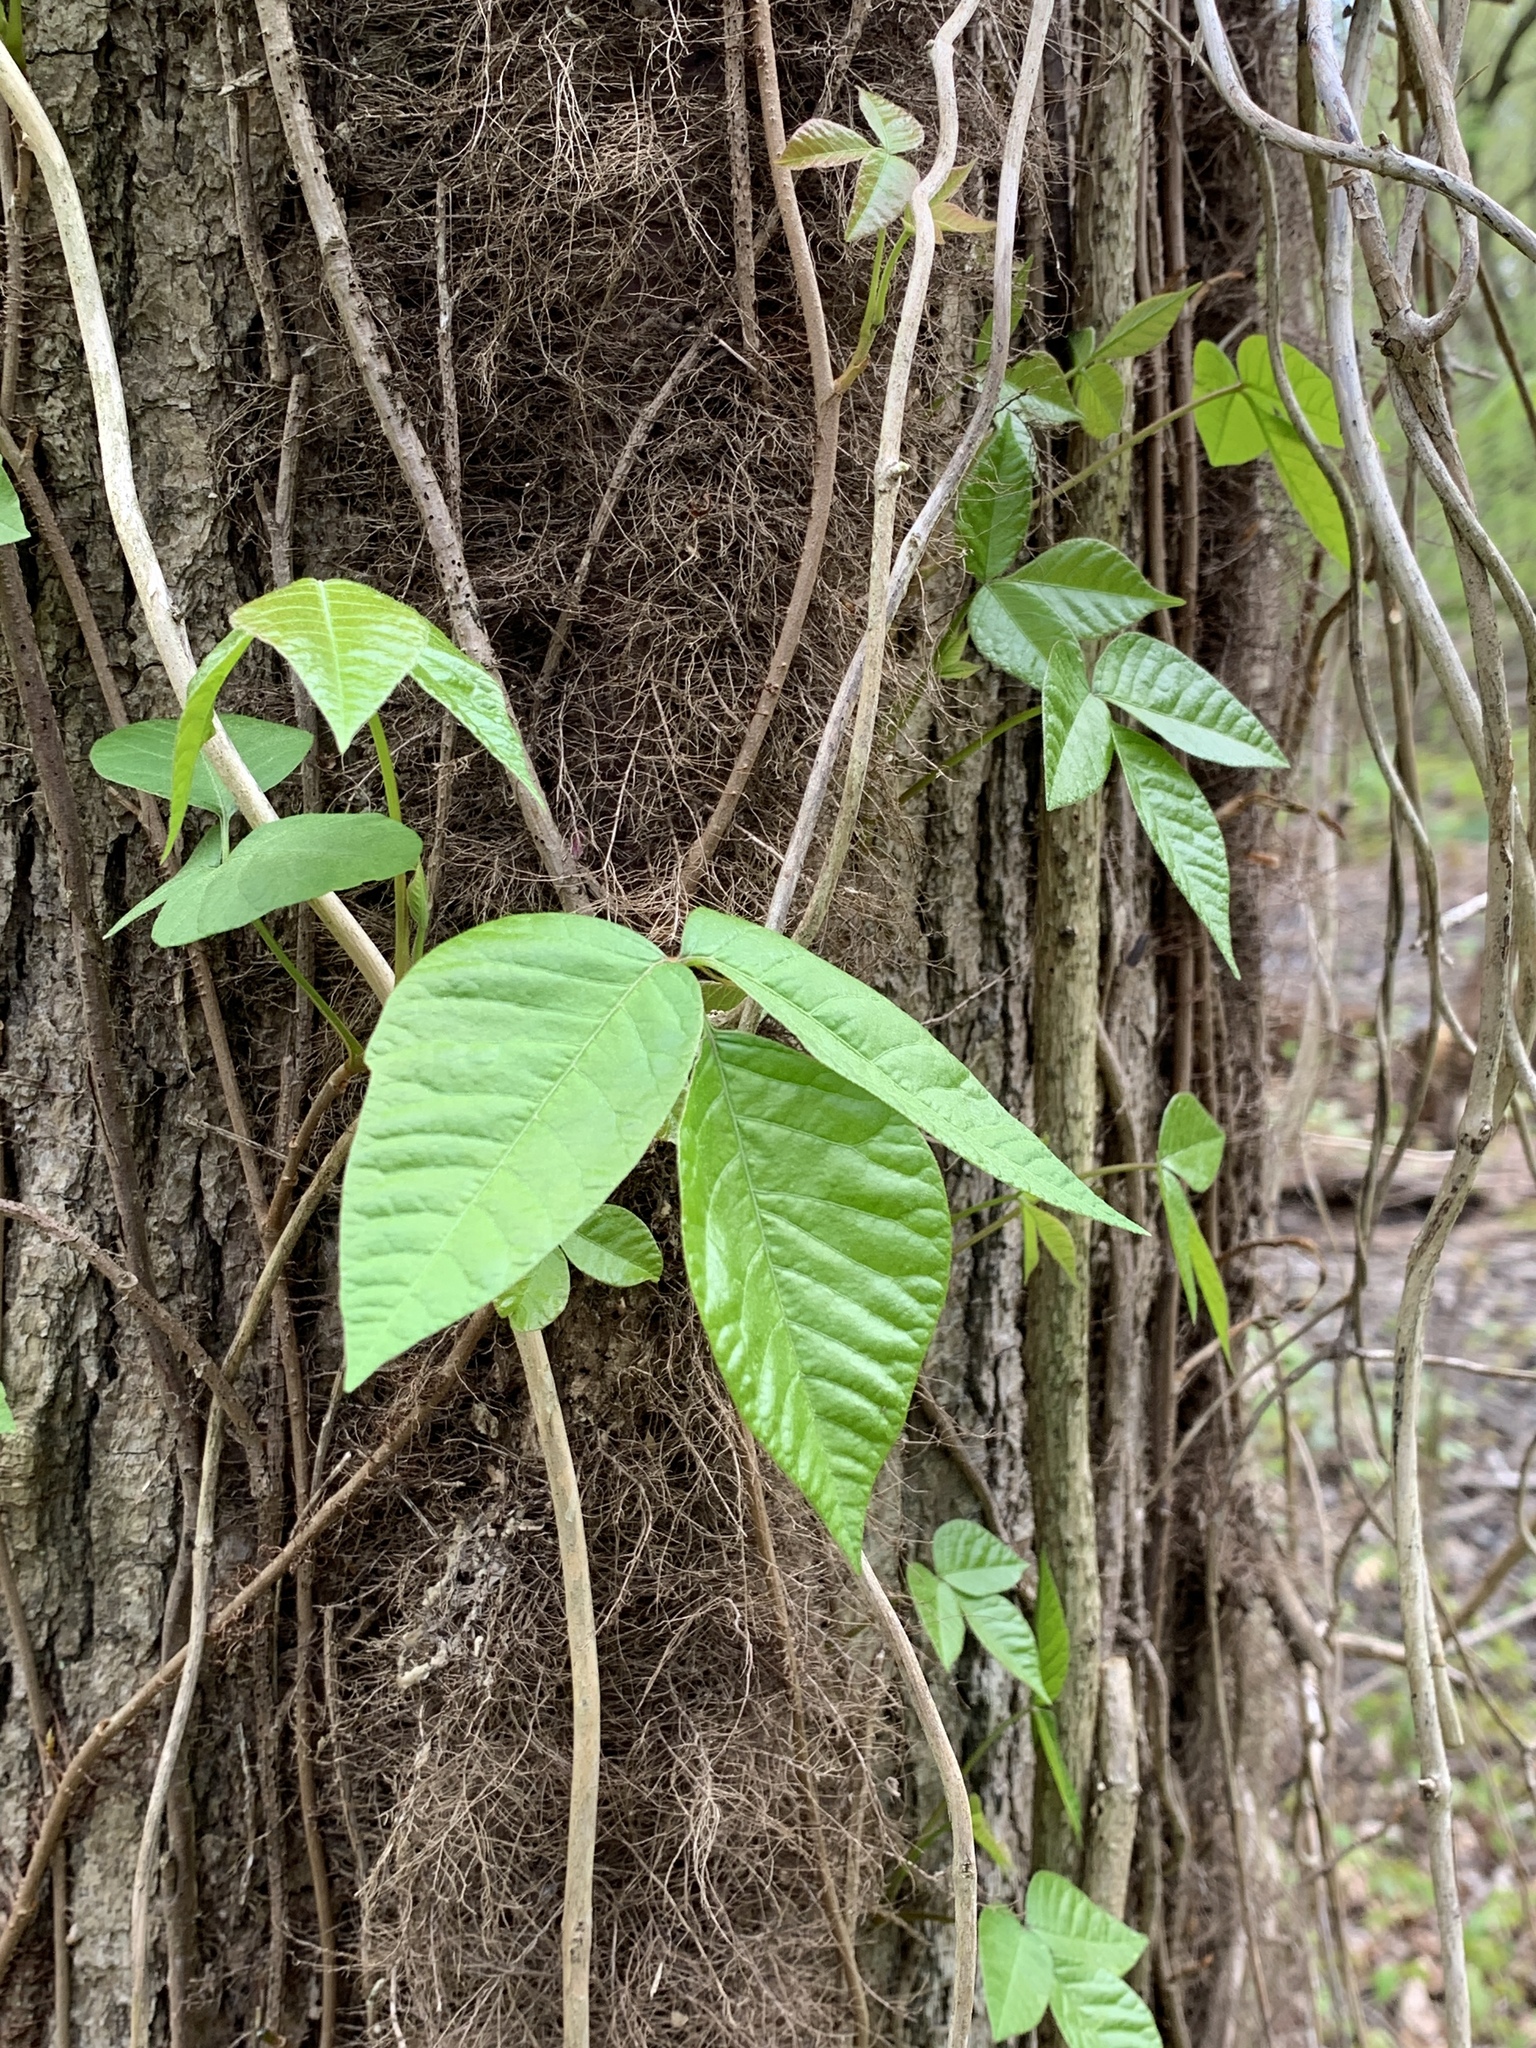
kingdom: Plantae
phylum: Tracheophyta
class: Magnoliopsida
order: Sapindales
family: Anacardiaceae
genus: Toxicodendron
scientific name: Toxicodendron radicans
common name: Poison ivy
